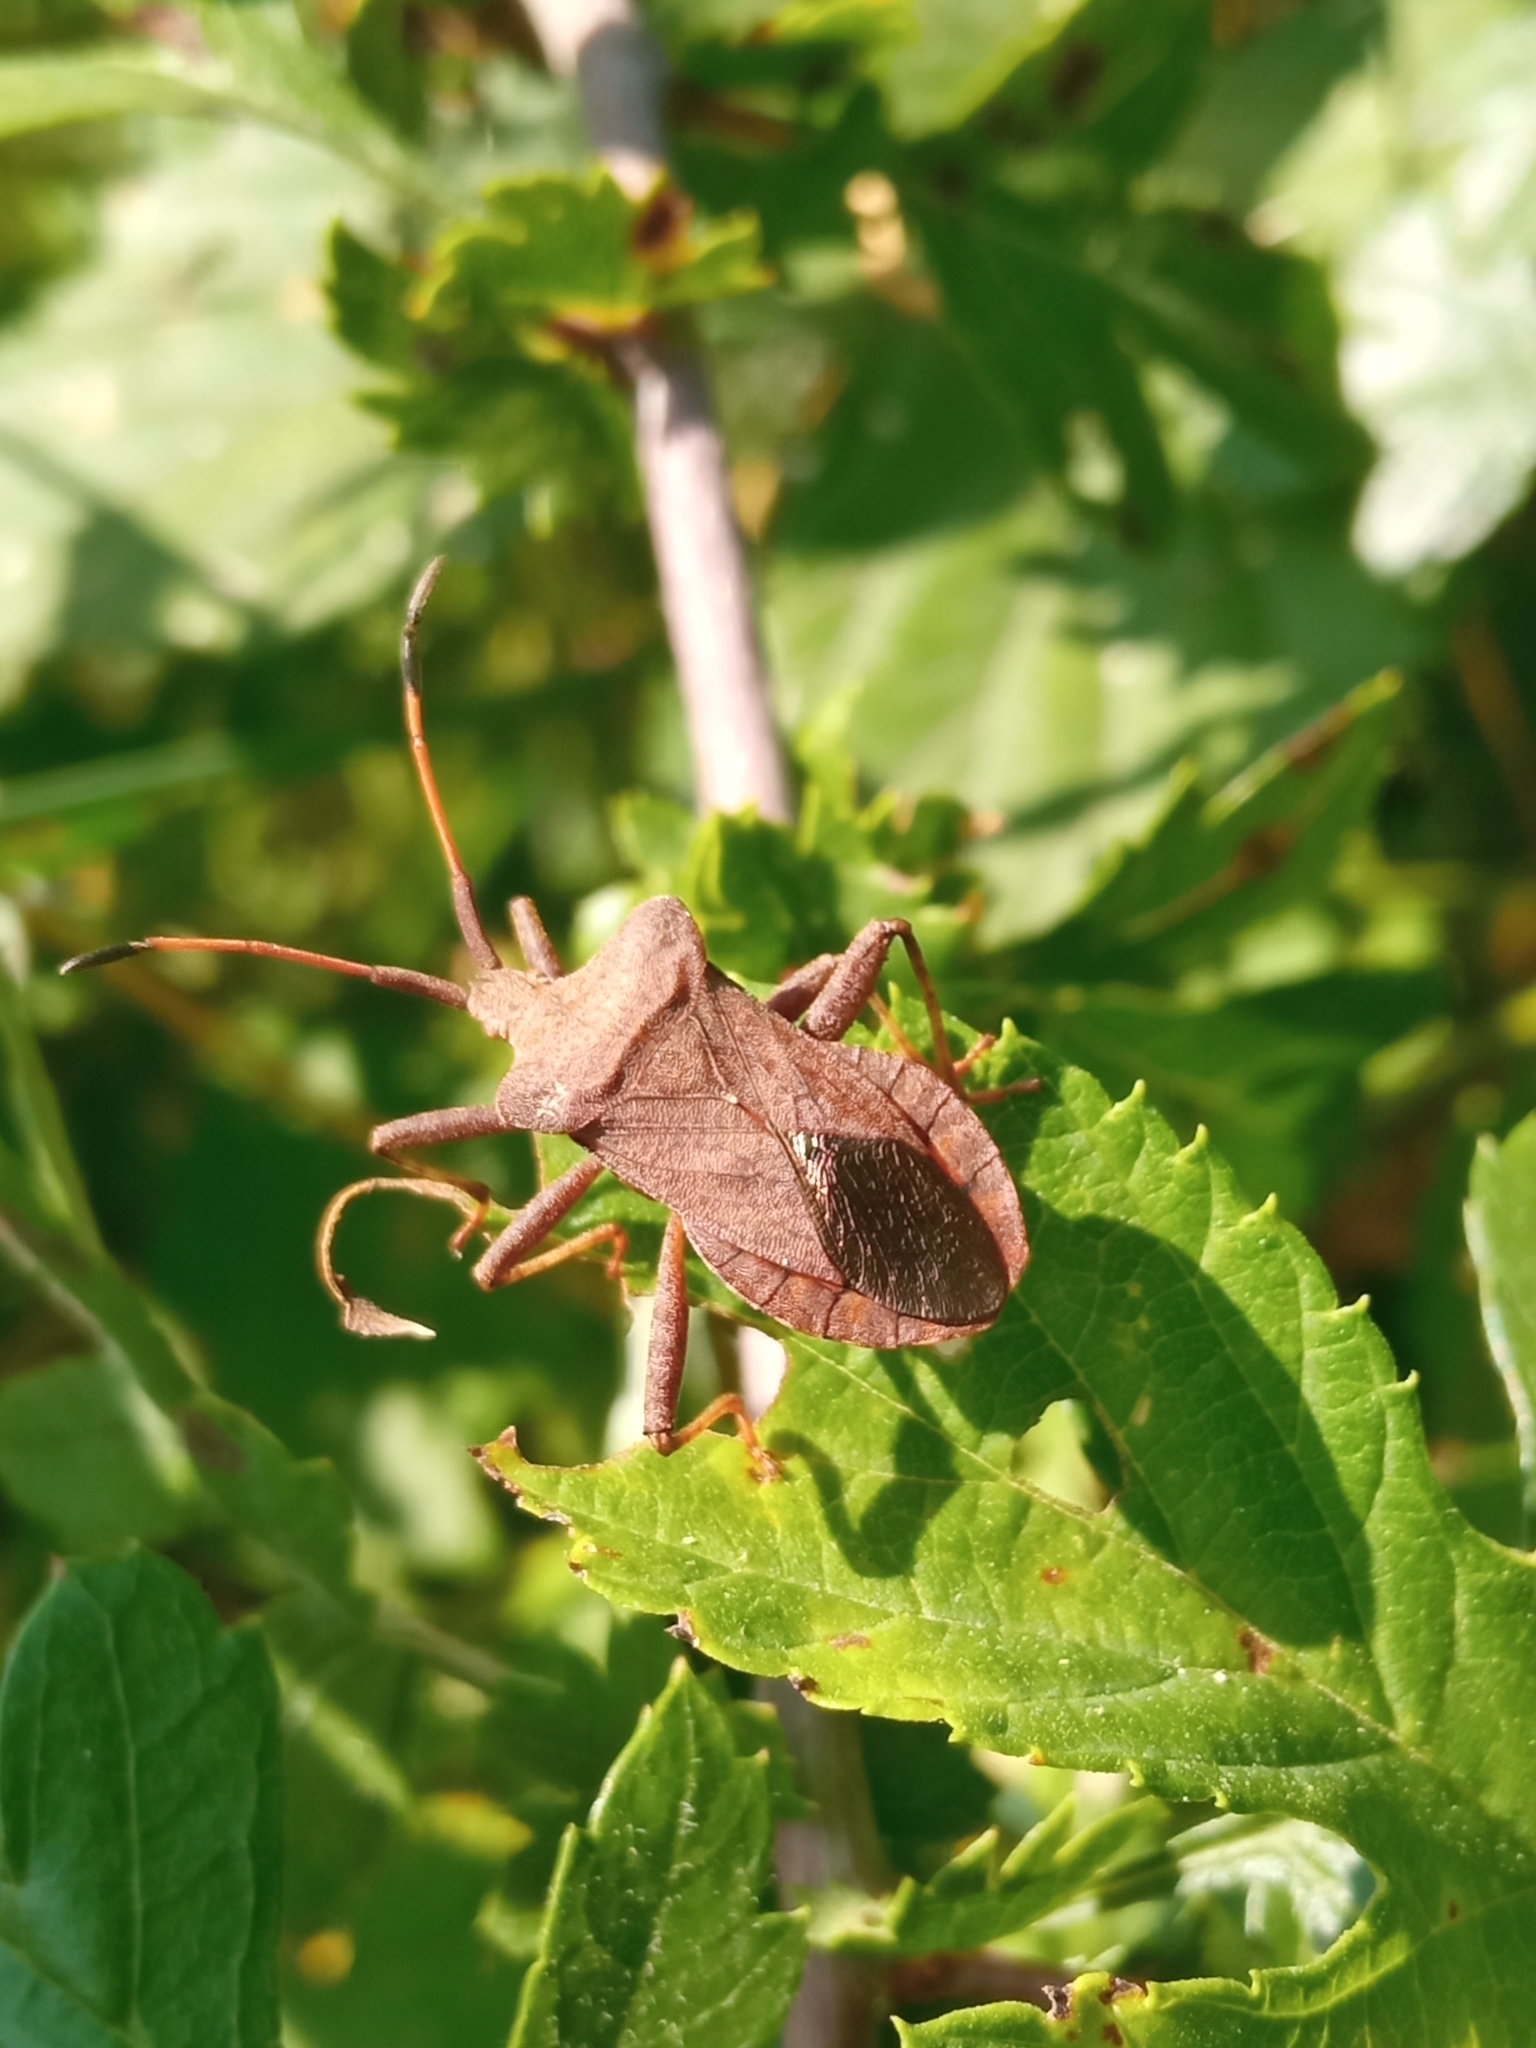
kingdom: Animalia
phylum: Arthropoda
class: Insecta
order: Hemiptera
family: Coreidae
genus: Coreus
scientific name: Coreus marginatus
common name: Dock bug
